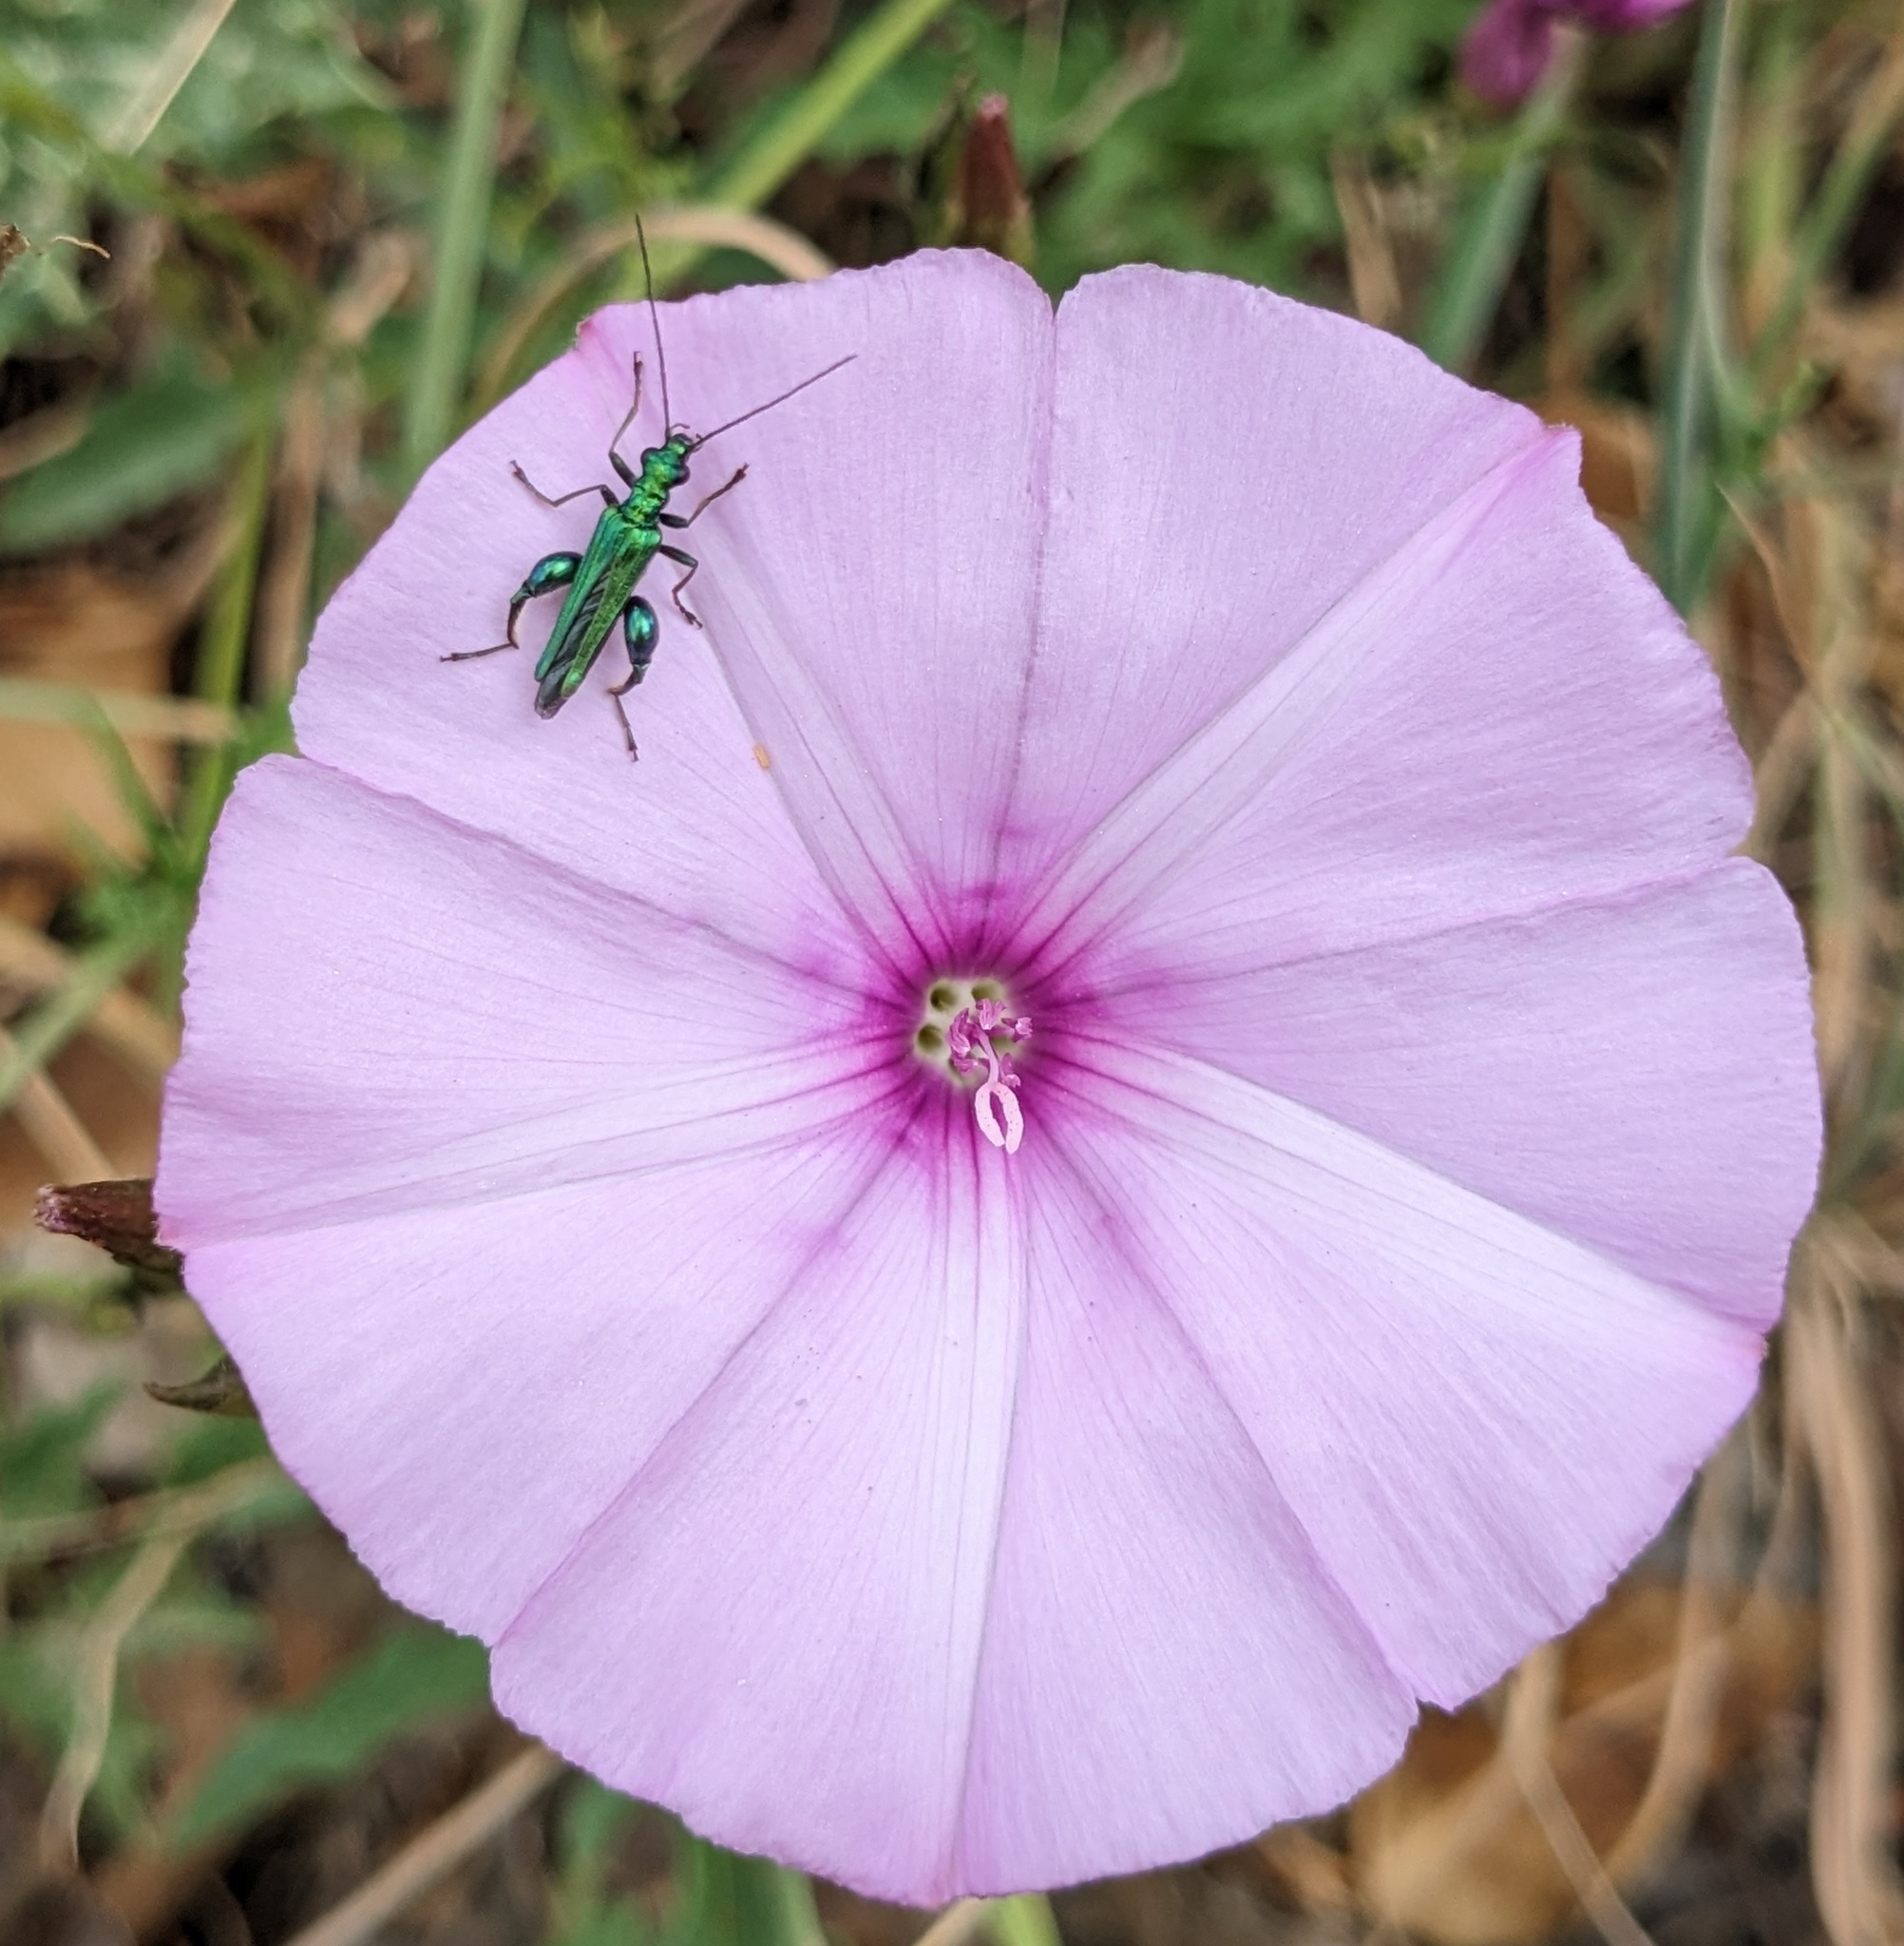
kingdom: Animalia
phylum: Arthropoda
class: Insecta
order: Coleoptera
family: Oedemeridae
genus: Oedemera
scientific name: Oedemera nobilis
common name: Swollen-thighed beetle
